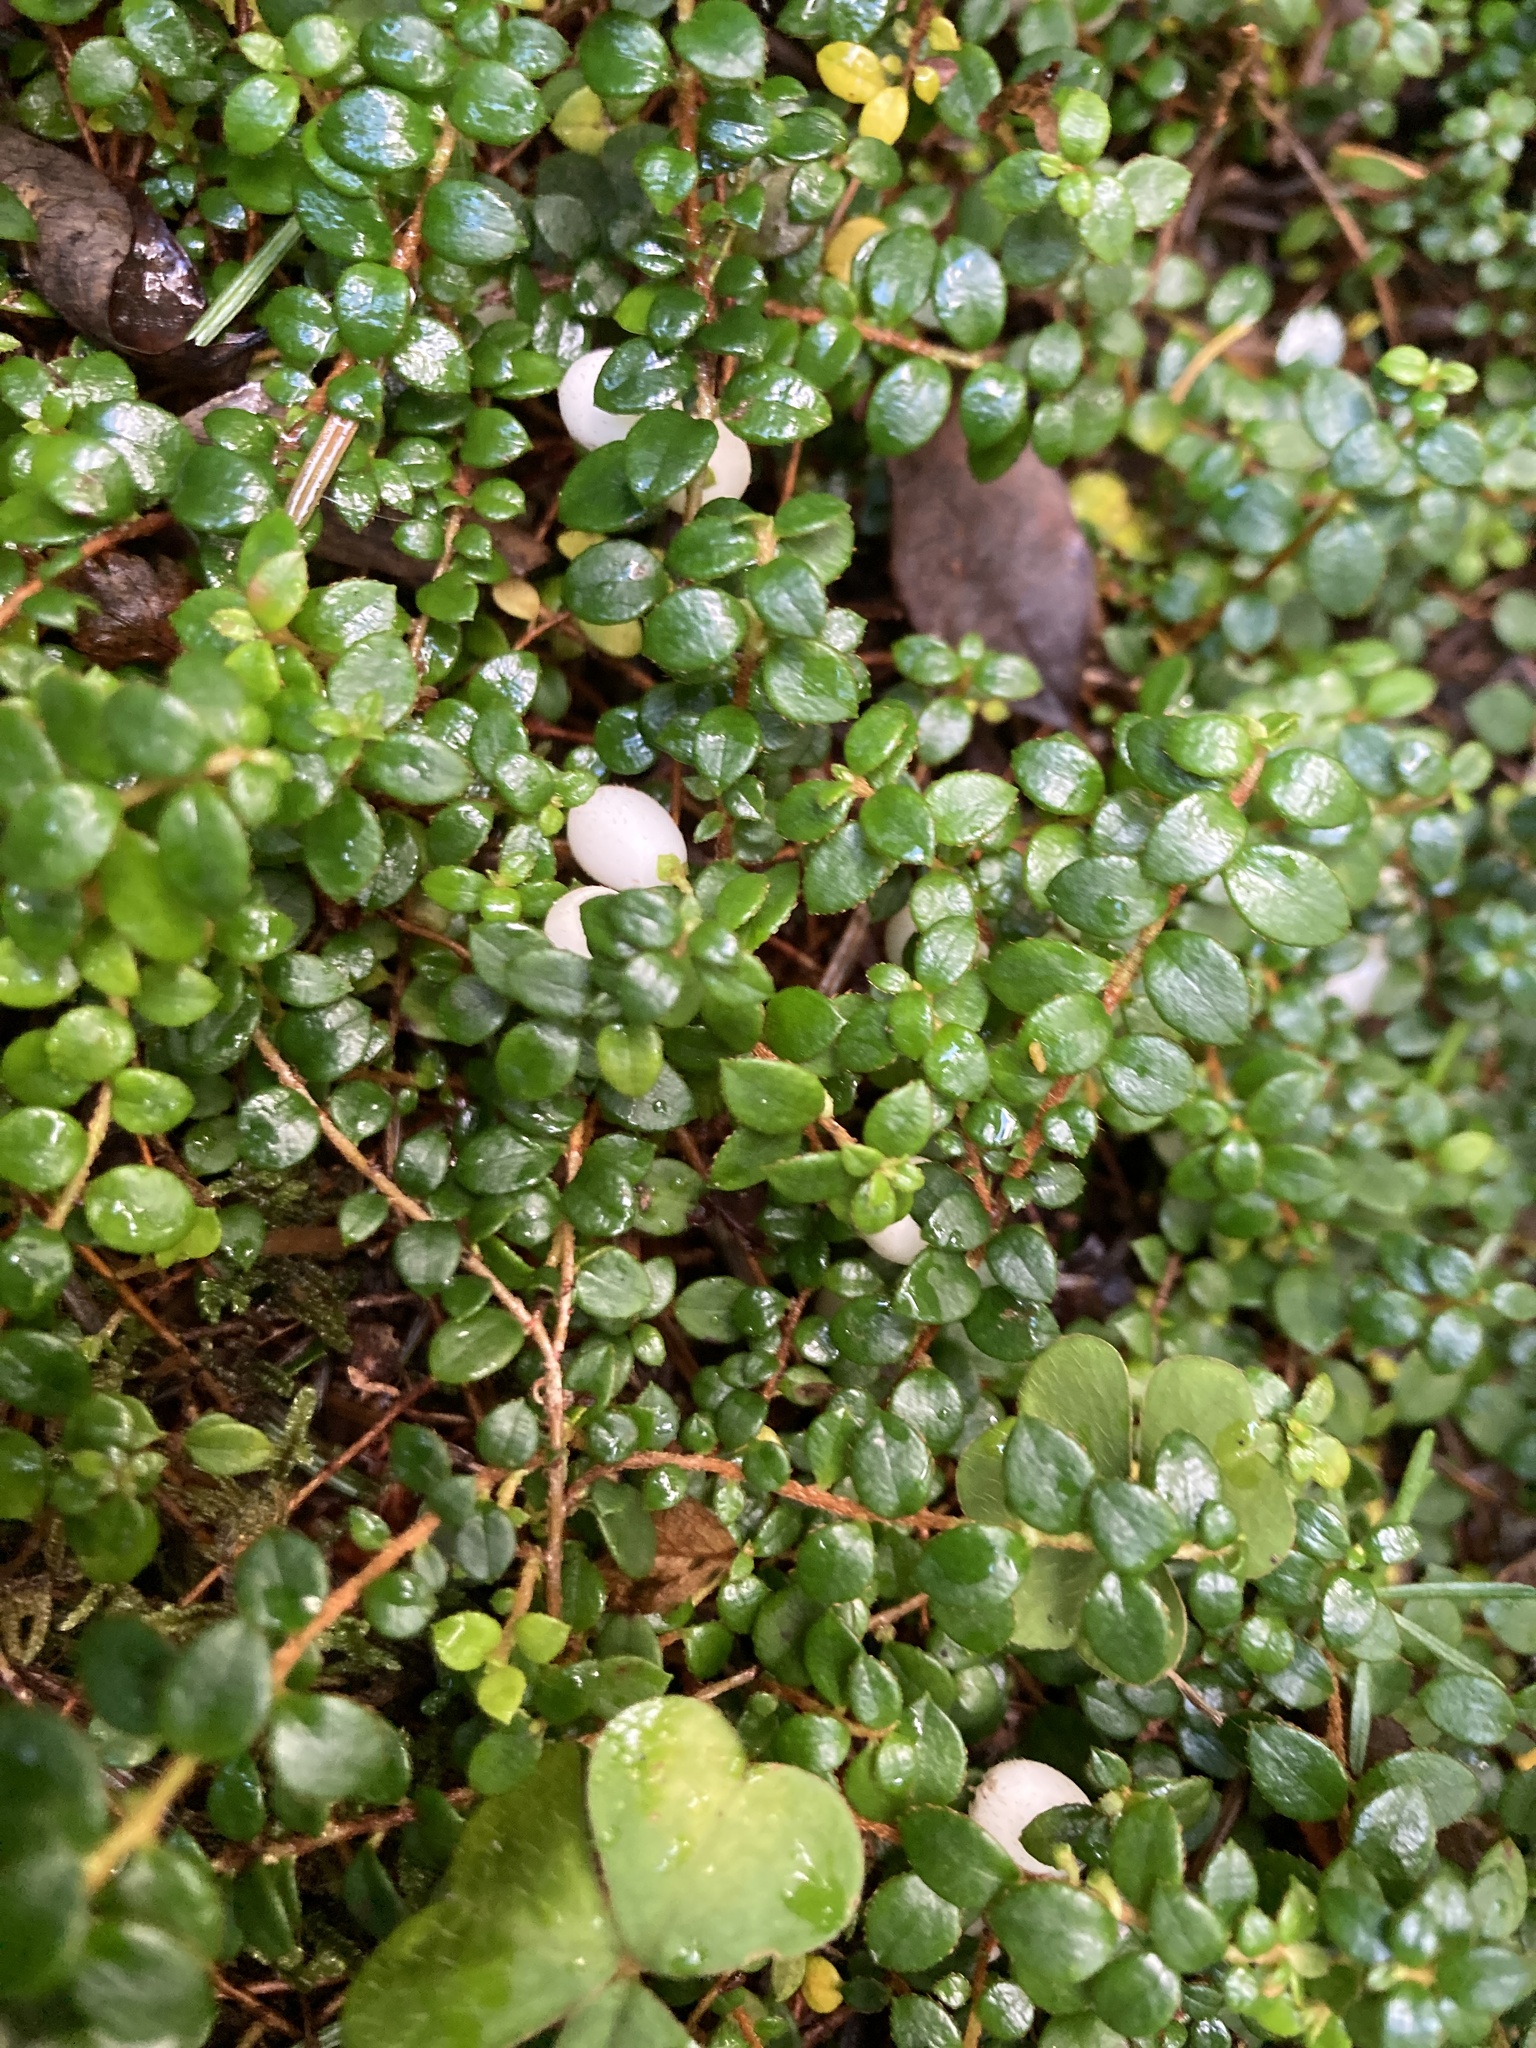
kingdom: Plantae
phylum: Tracheophyta
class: Magnoliopsida
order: Ericales
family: Ericaceae
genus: Gaultheria
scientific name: Gaultheria hispidula
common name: Cancer wintergreen
